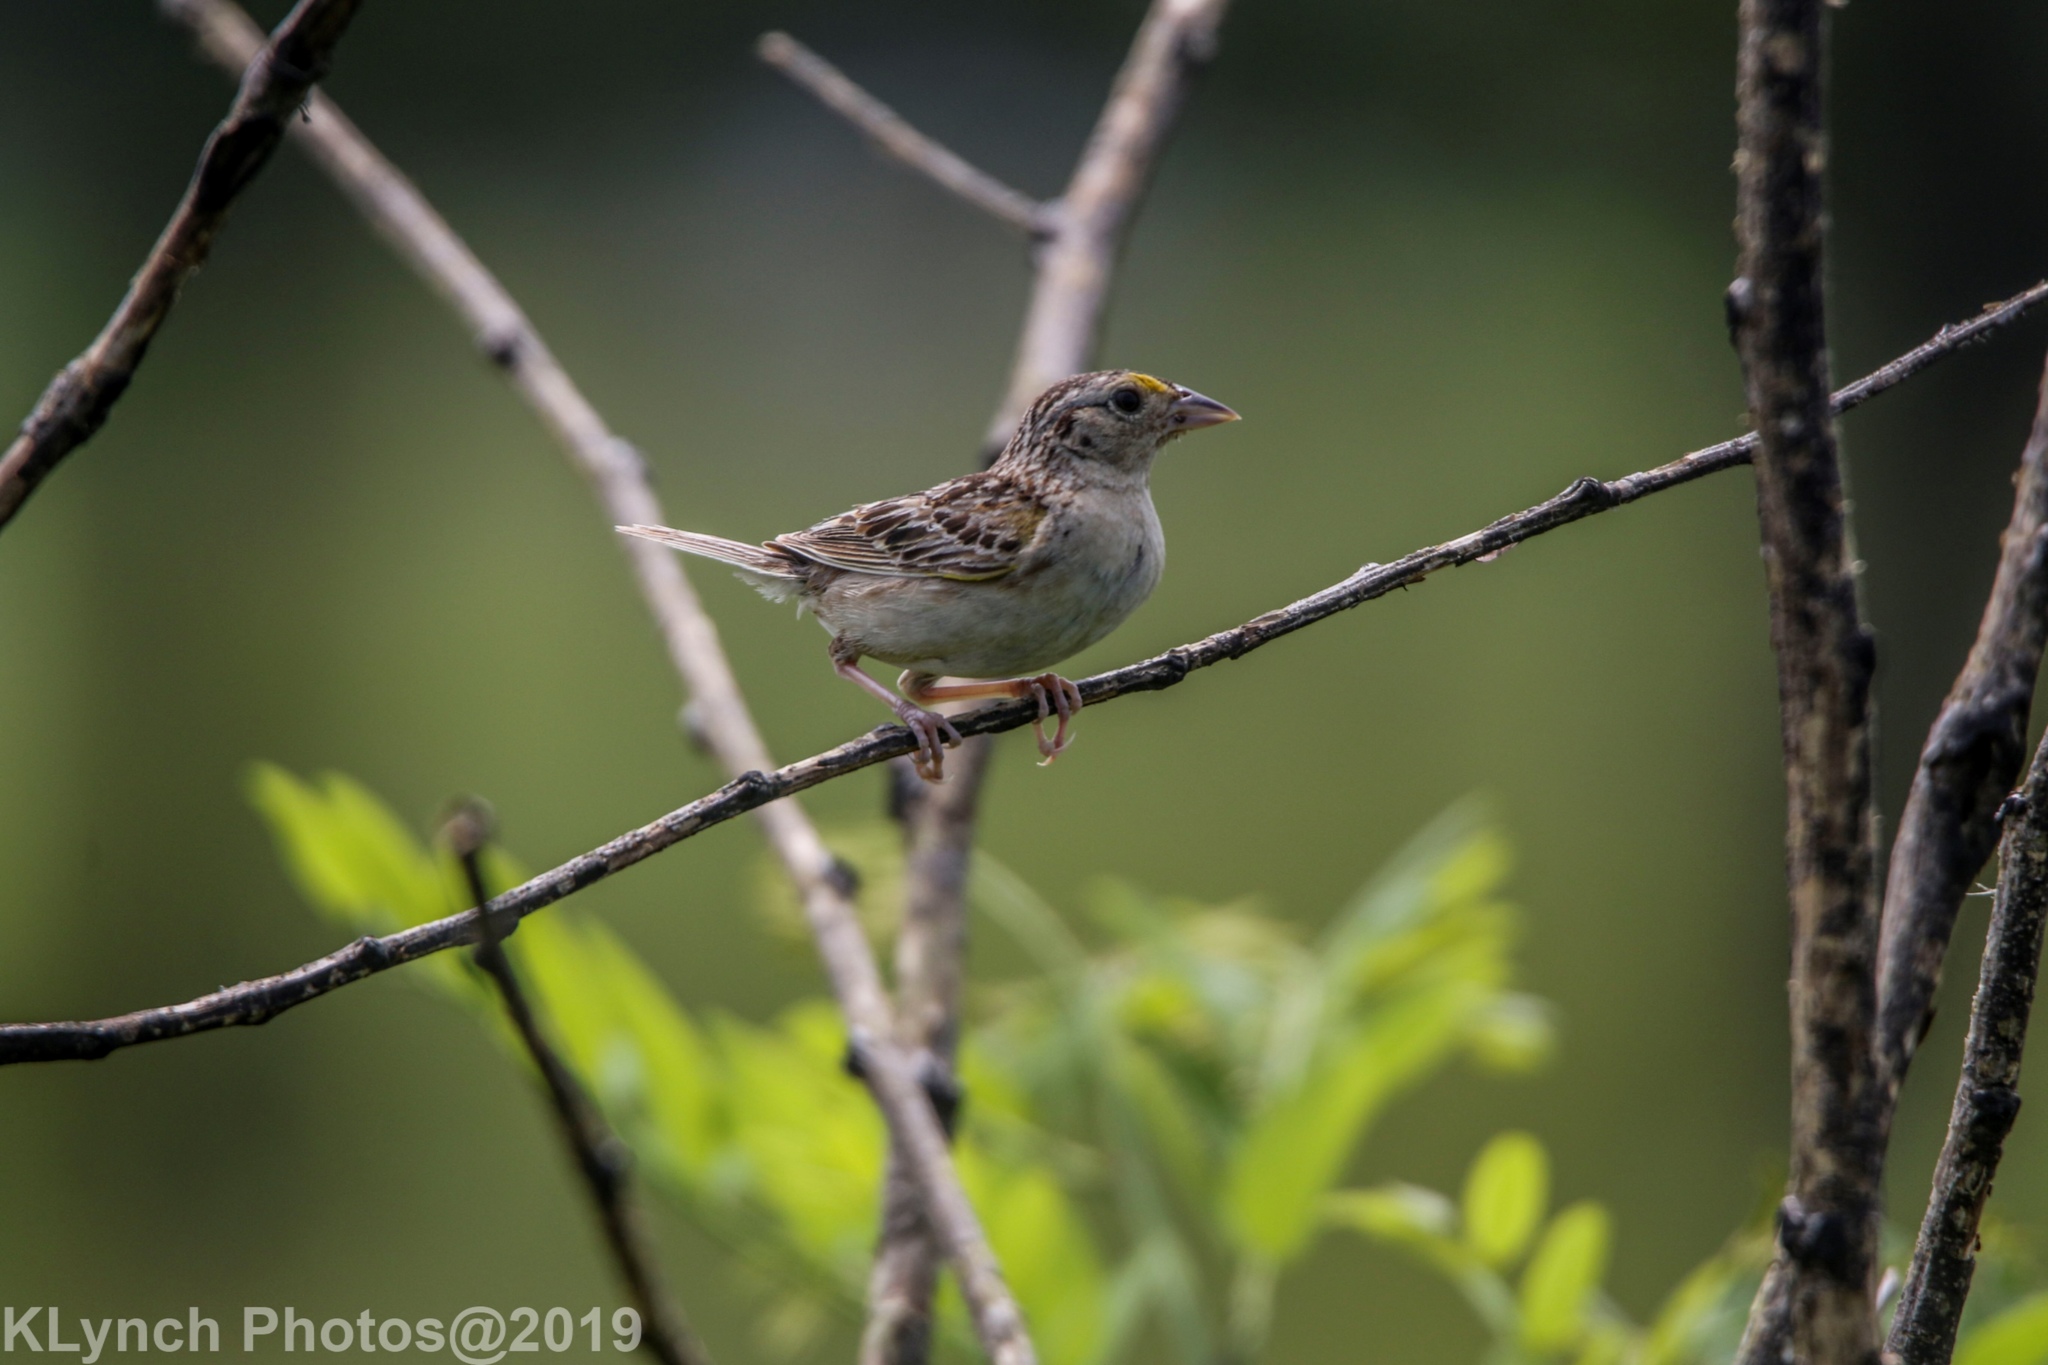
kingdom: Animalia
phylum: Chordata
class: Aves
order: Passeriformes
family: Passerellidae
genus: Ammodramus
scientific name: Ammodramus savannarum
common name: Grasshopper sparrow
